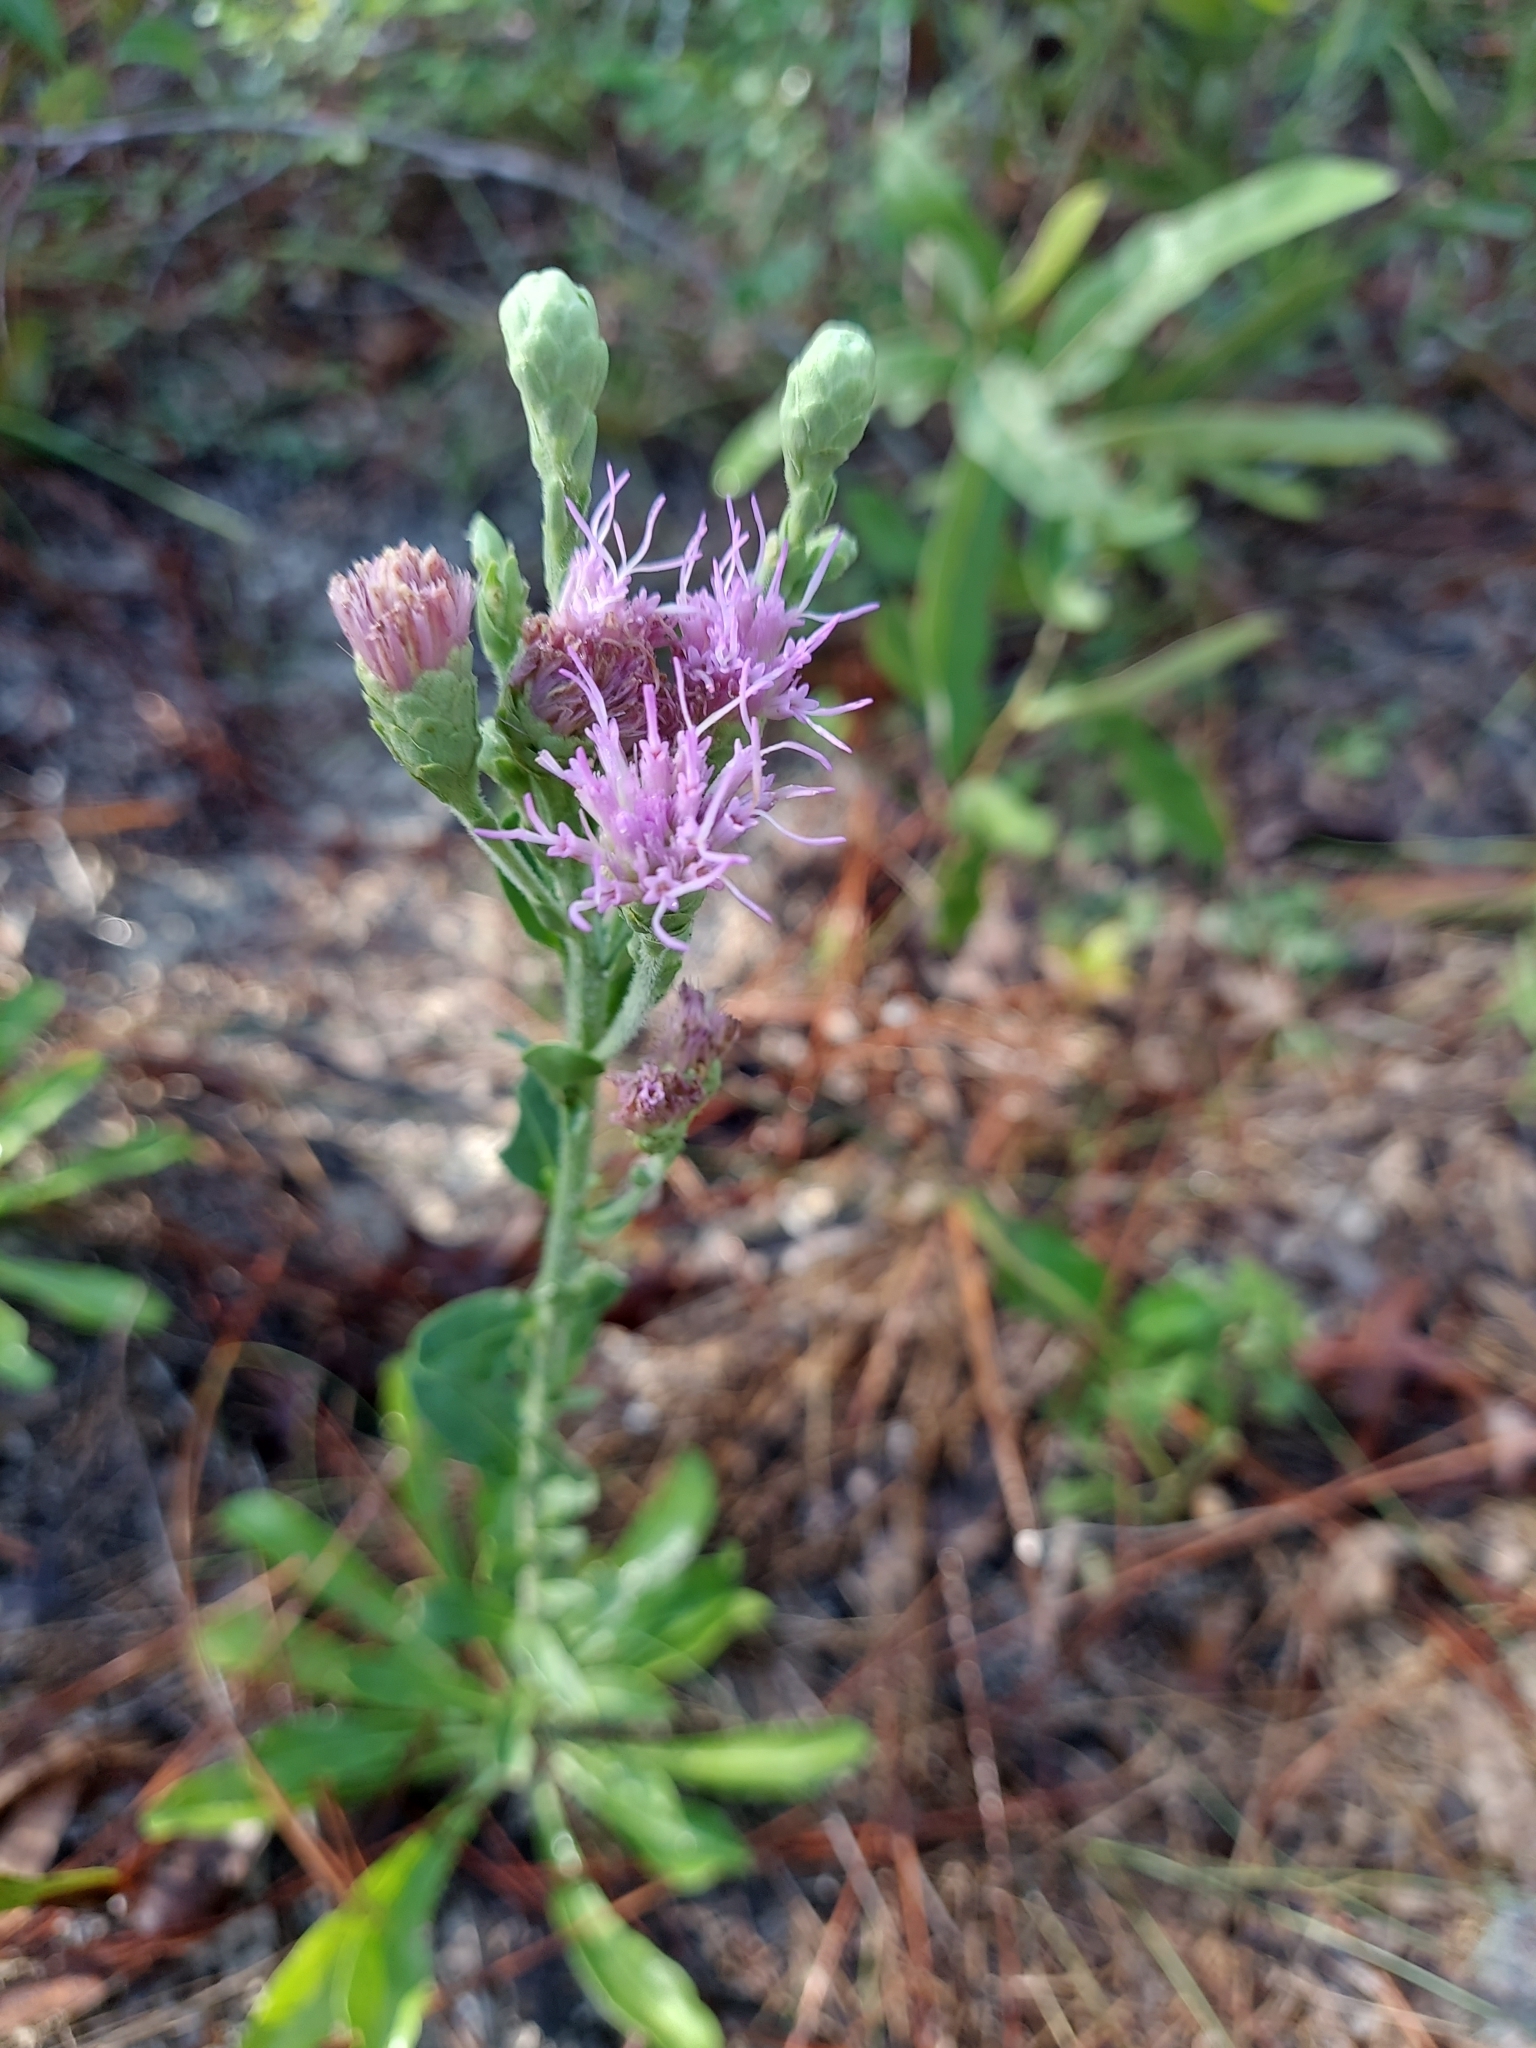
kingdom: Plantae
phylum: Tracheophyta
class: Magnoliopsida
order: Asterales
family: Asteraceae
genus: Carphephorus
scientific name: Carphephorus corymbosus
